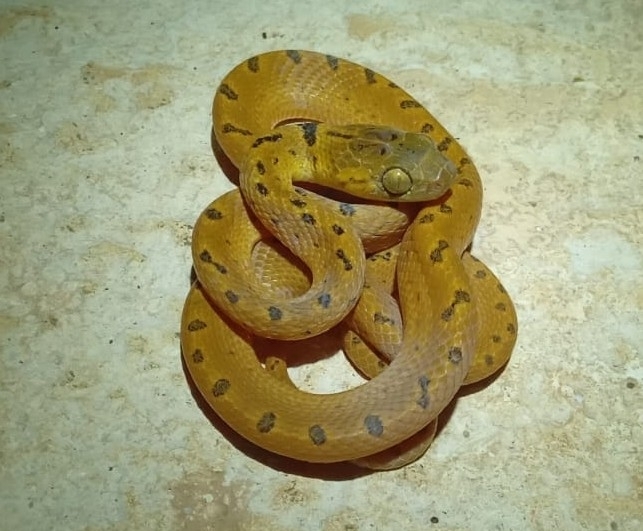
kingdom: Animalia
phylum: Chordata
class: Squamata
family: Colubridae
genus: Leptodeira
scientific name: Leptodeira septentrionalis
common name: Northern cat-eyed snake
